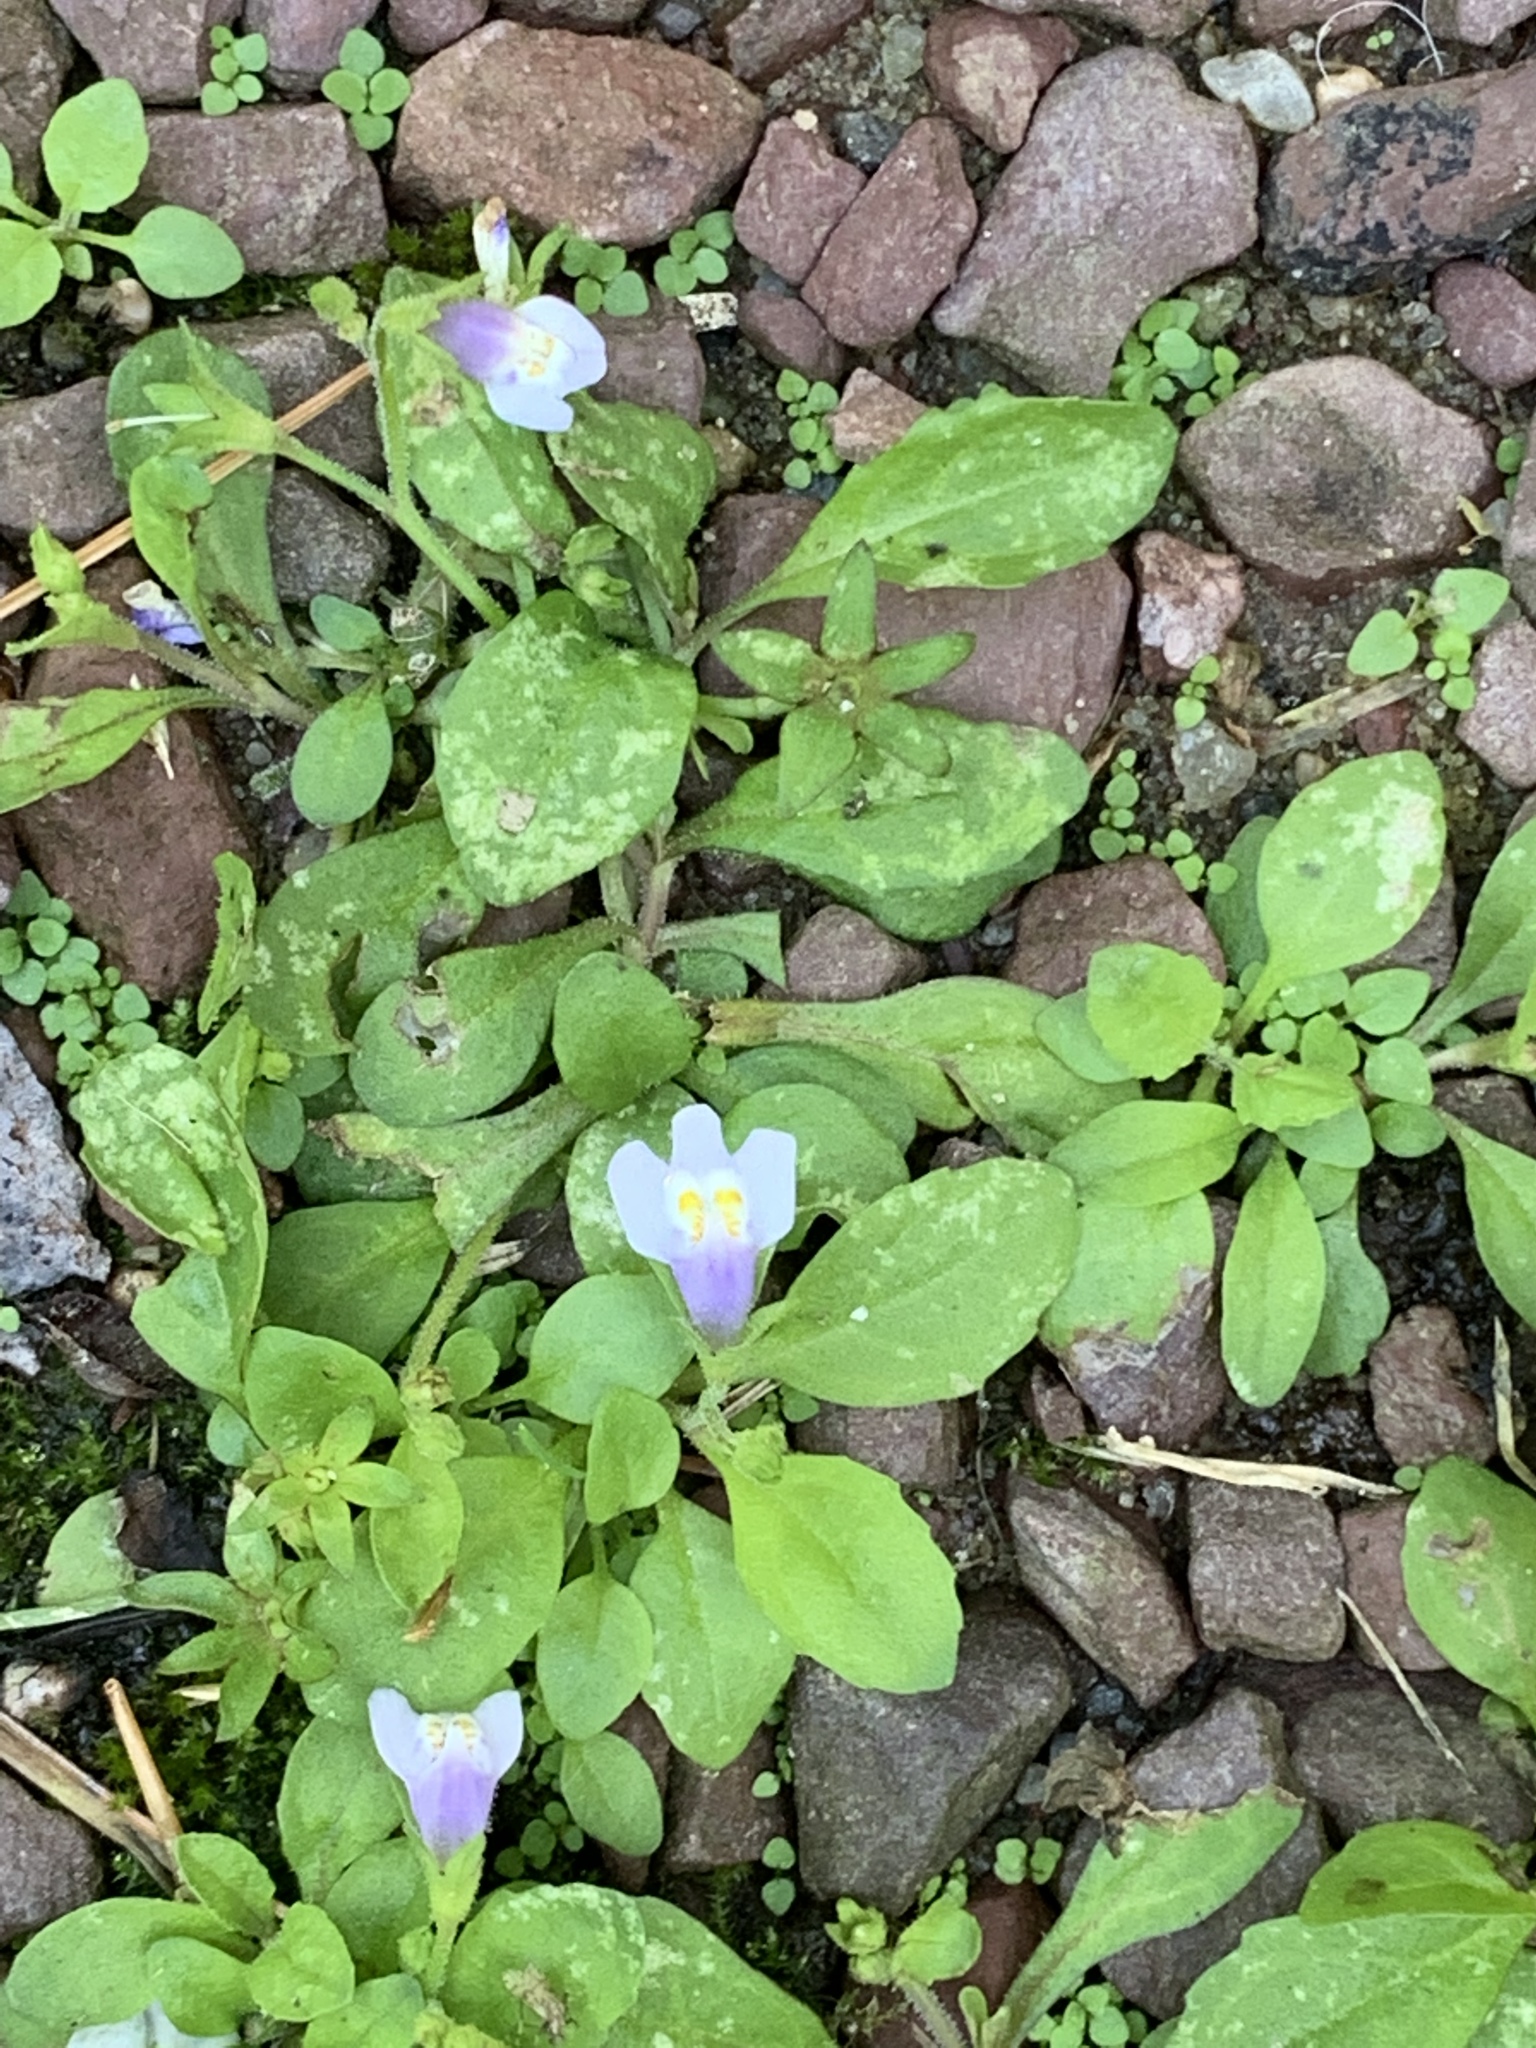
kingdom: Plantae
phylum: Tracheophyta
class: Magnoliopsida
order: Lamiales
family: Mazaceae
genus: Mazus
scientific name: Mazus pumilus
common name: Japanese mazus
